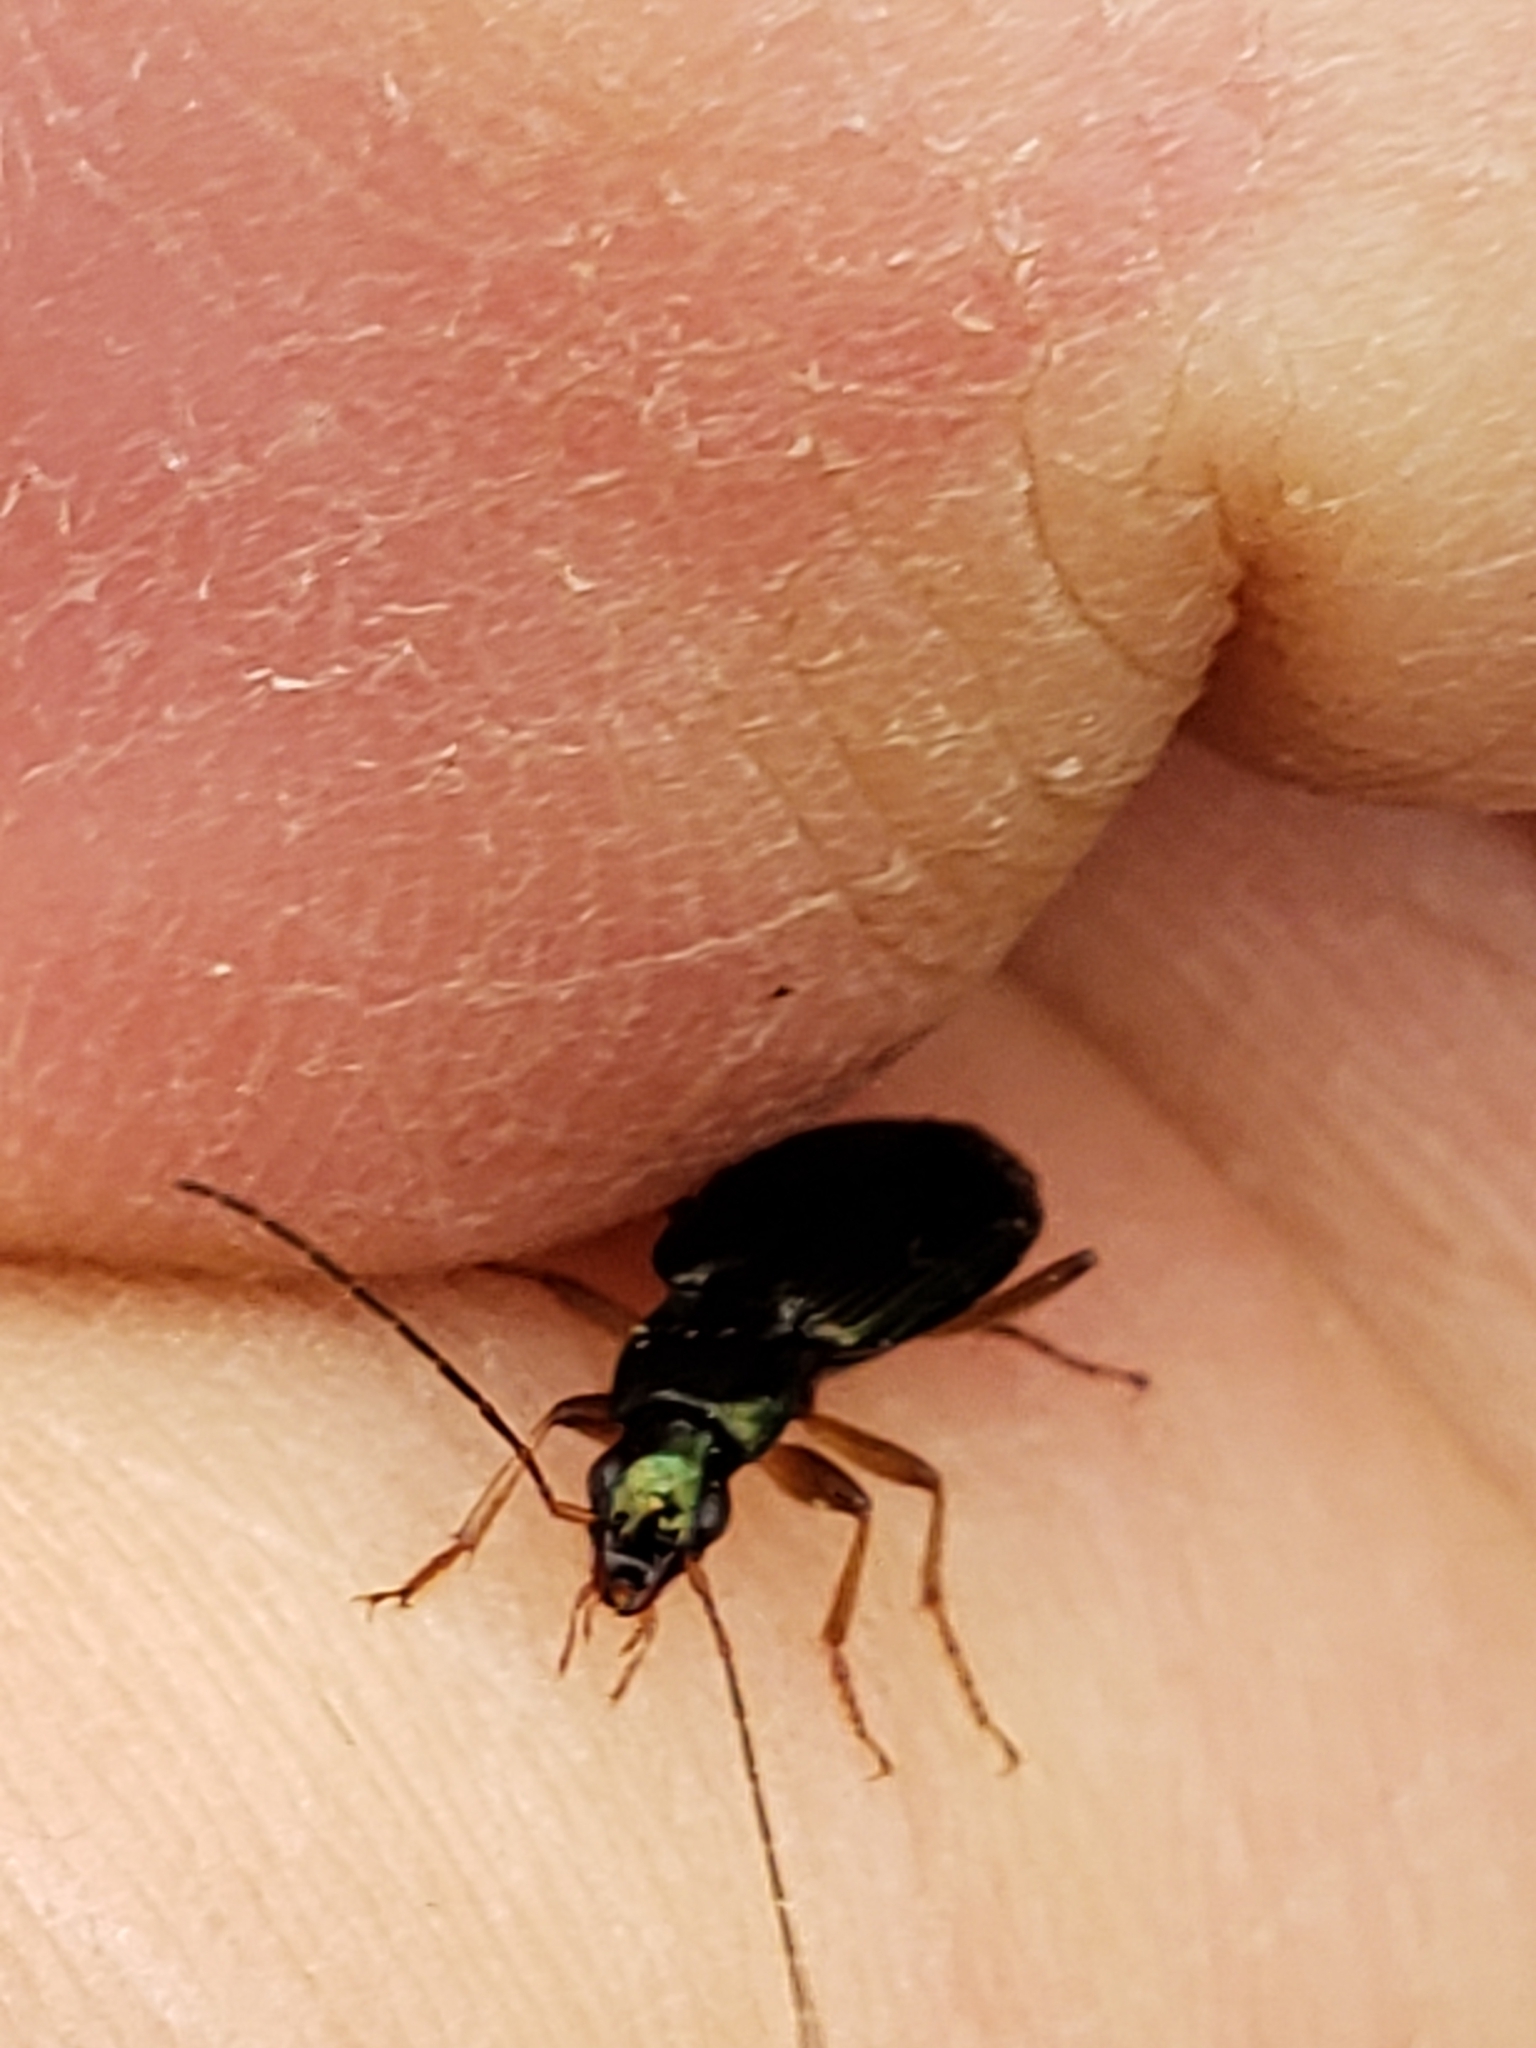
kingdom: Animalia
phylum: Arthropoda
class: Insecta
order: Coleoptera
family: Carabidae
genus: Agonum
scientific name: Agonum extensicolle
